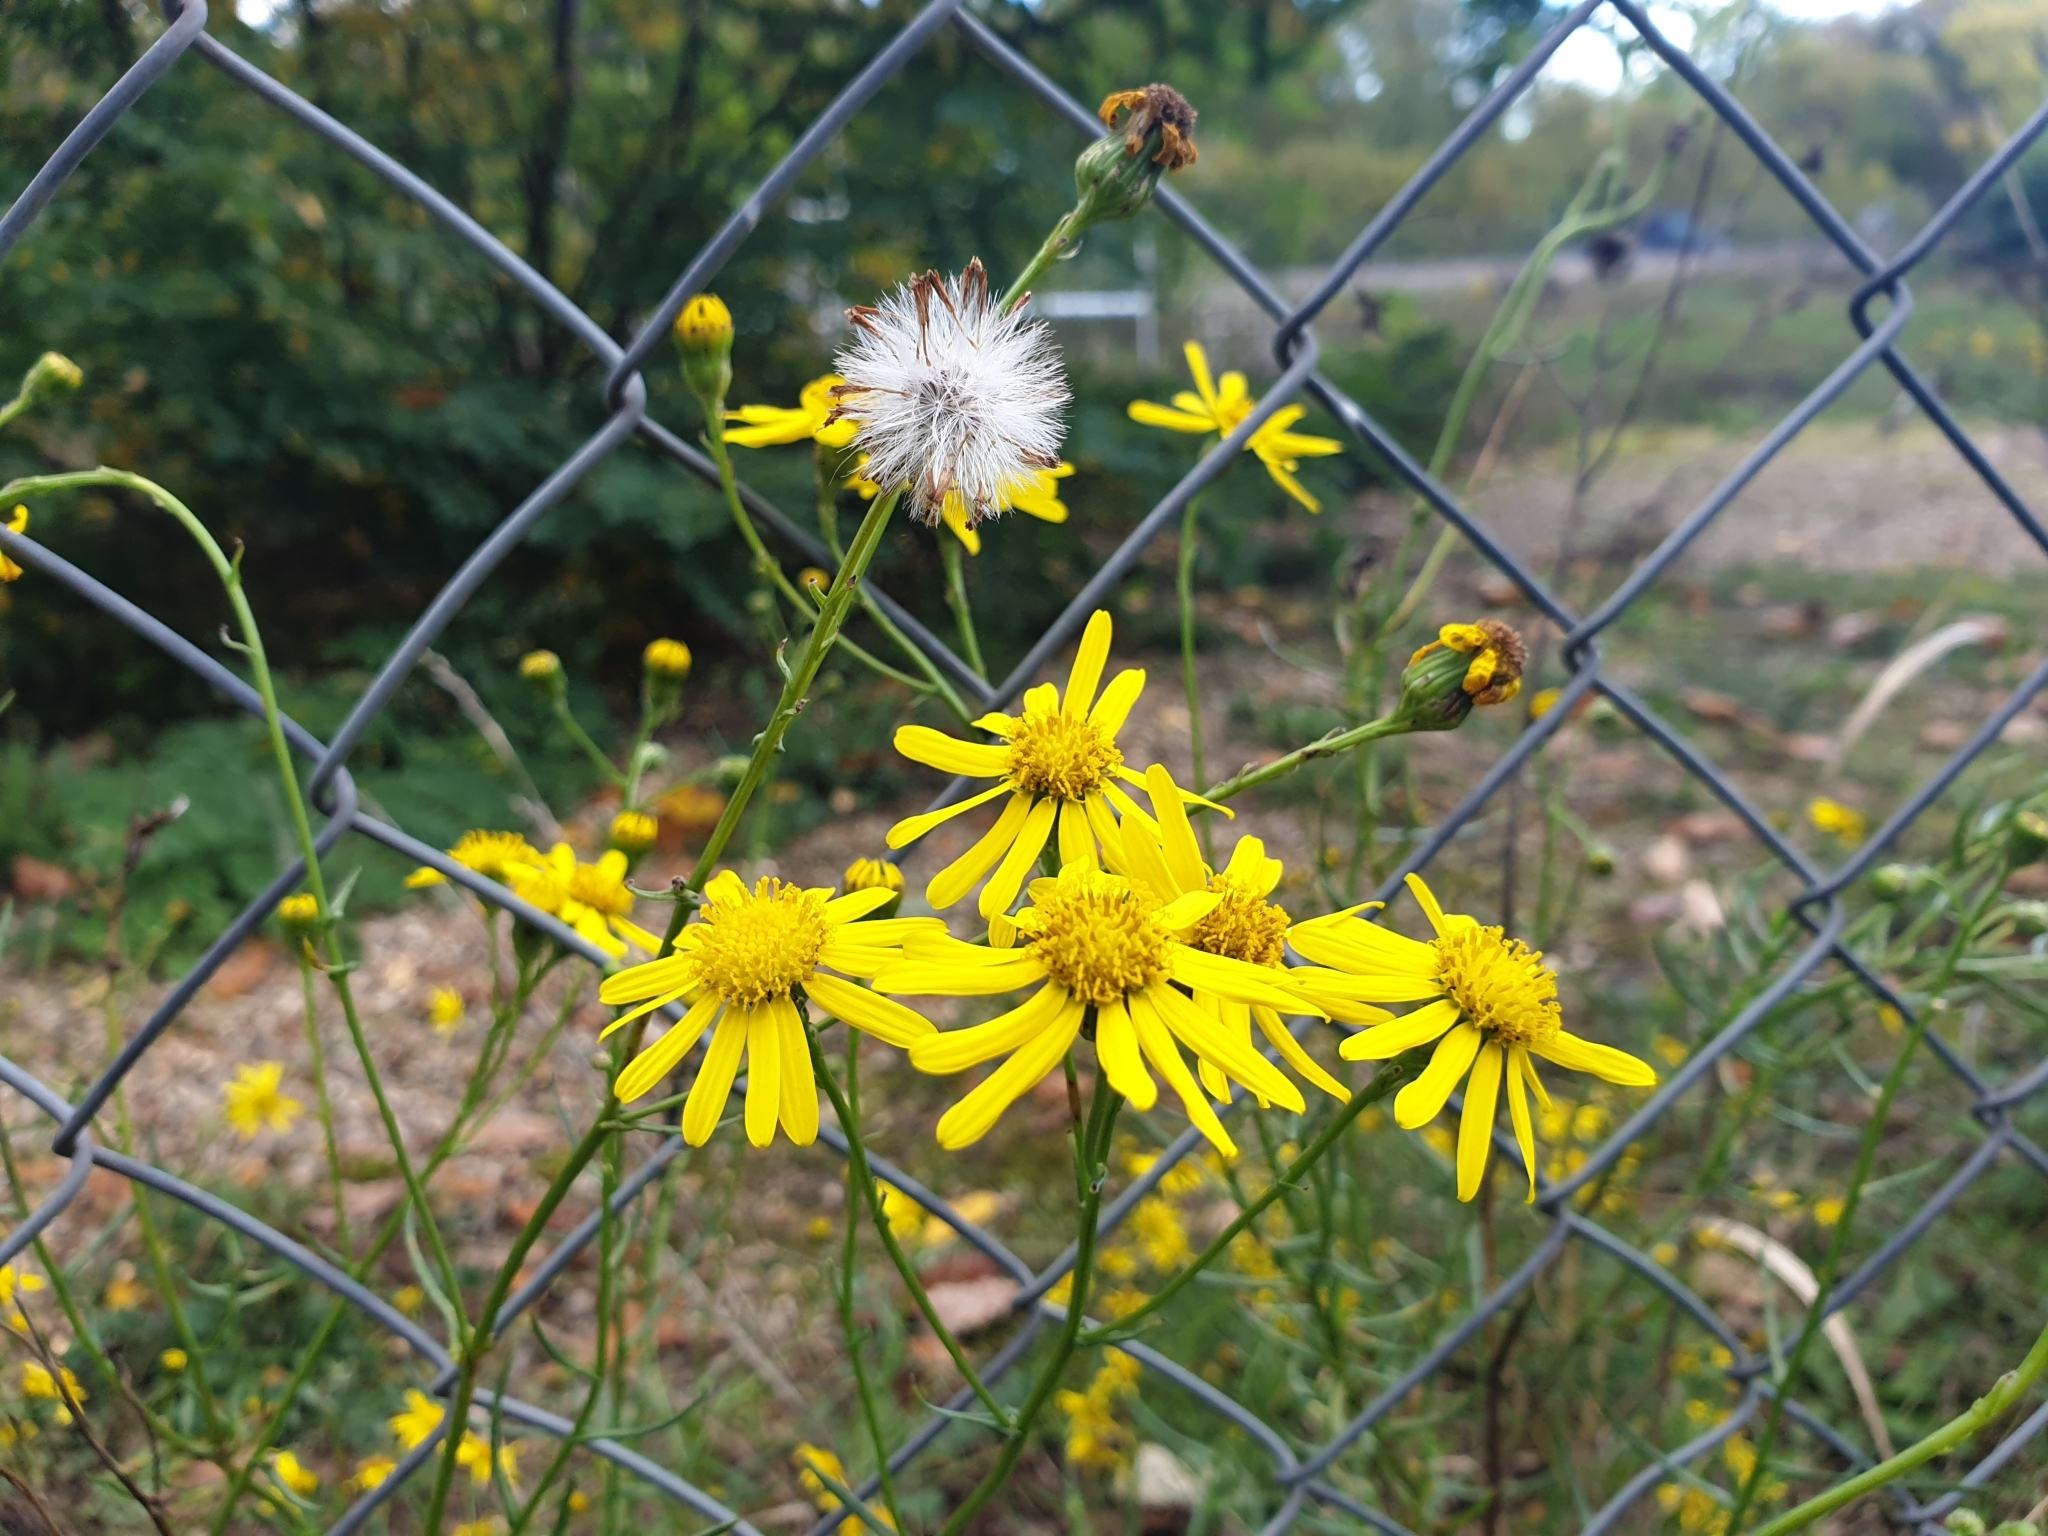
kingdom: Plantae
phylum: Tracheophyta
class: Magnoliopsida
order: Asterales
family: Asteraceae
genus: Senecio
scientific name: Senecio inaequidens
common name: Narrow-leaved ragwort
